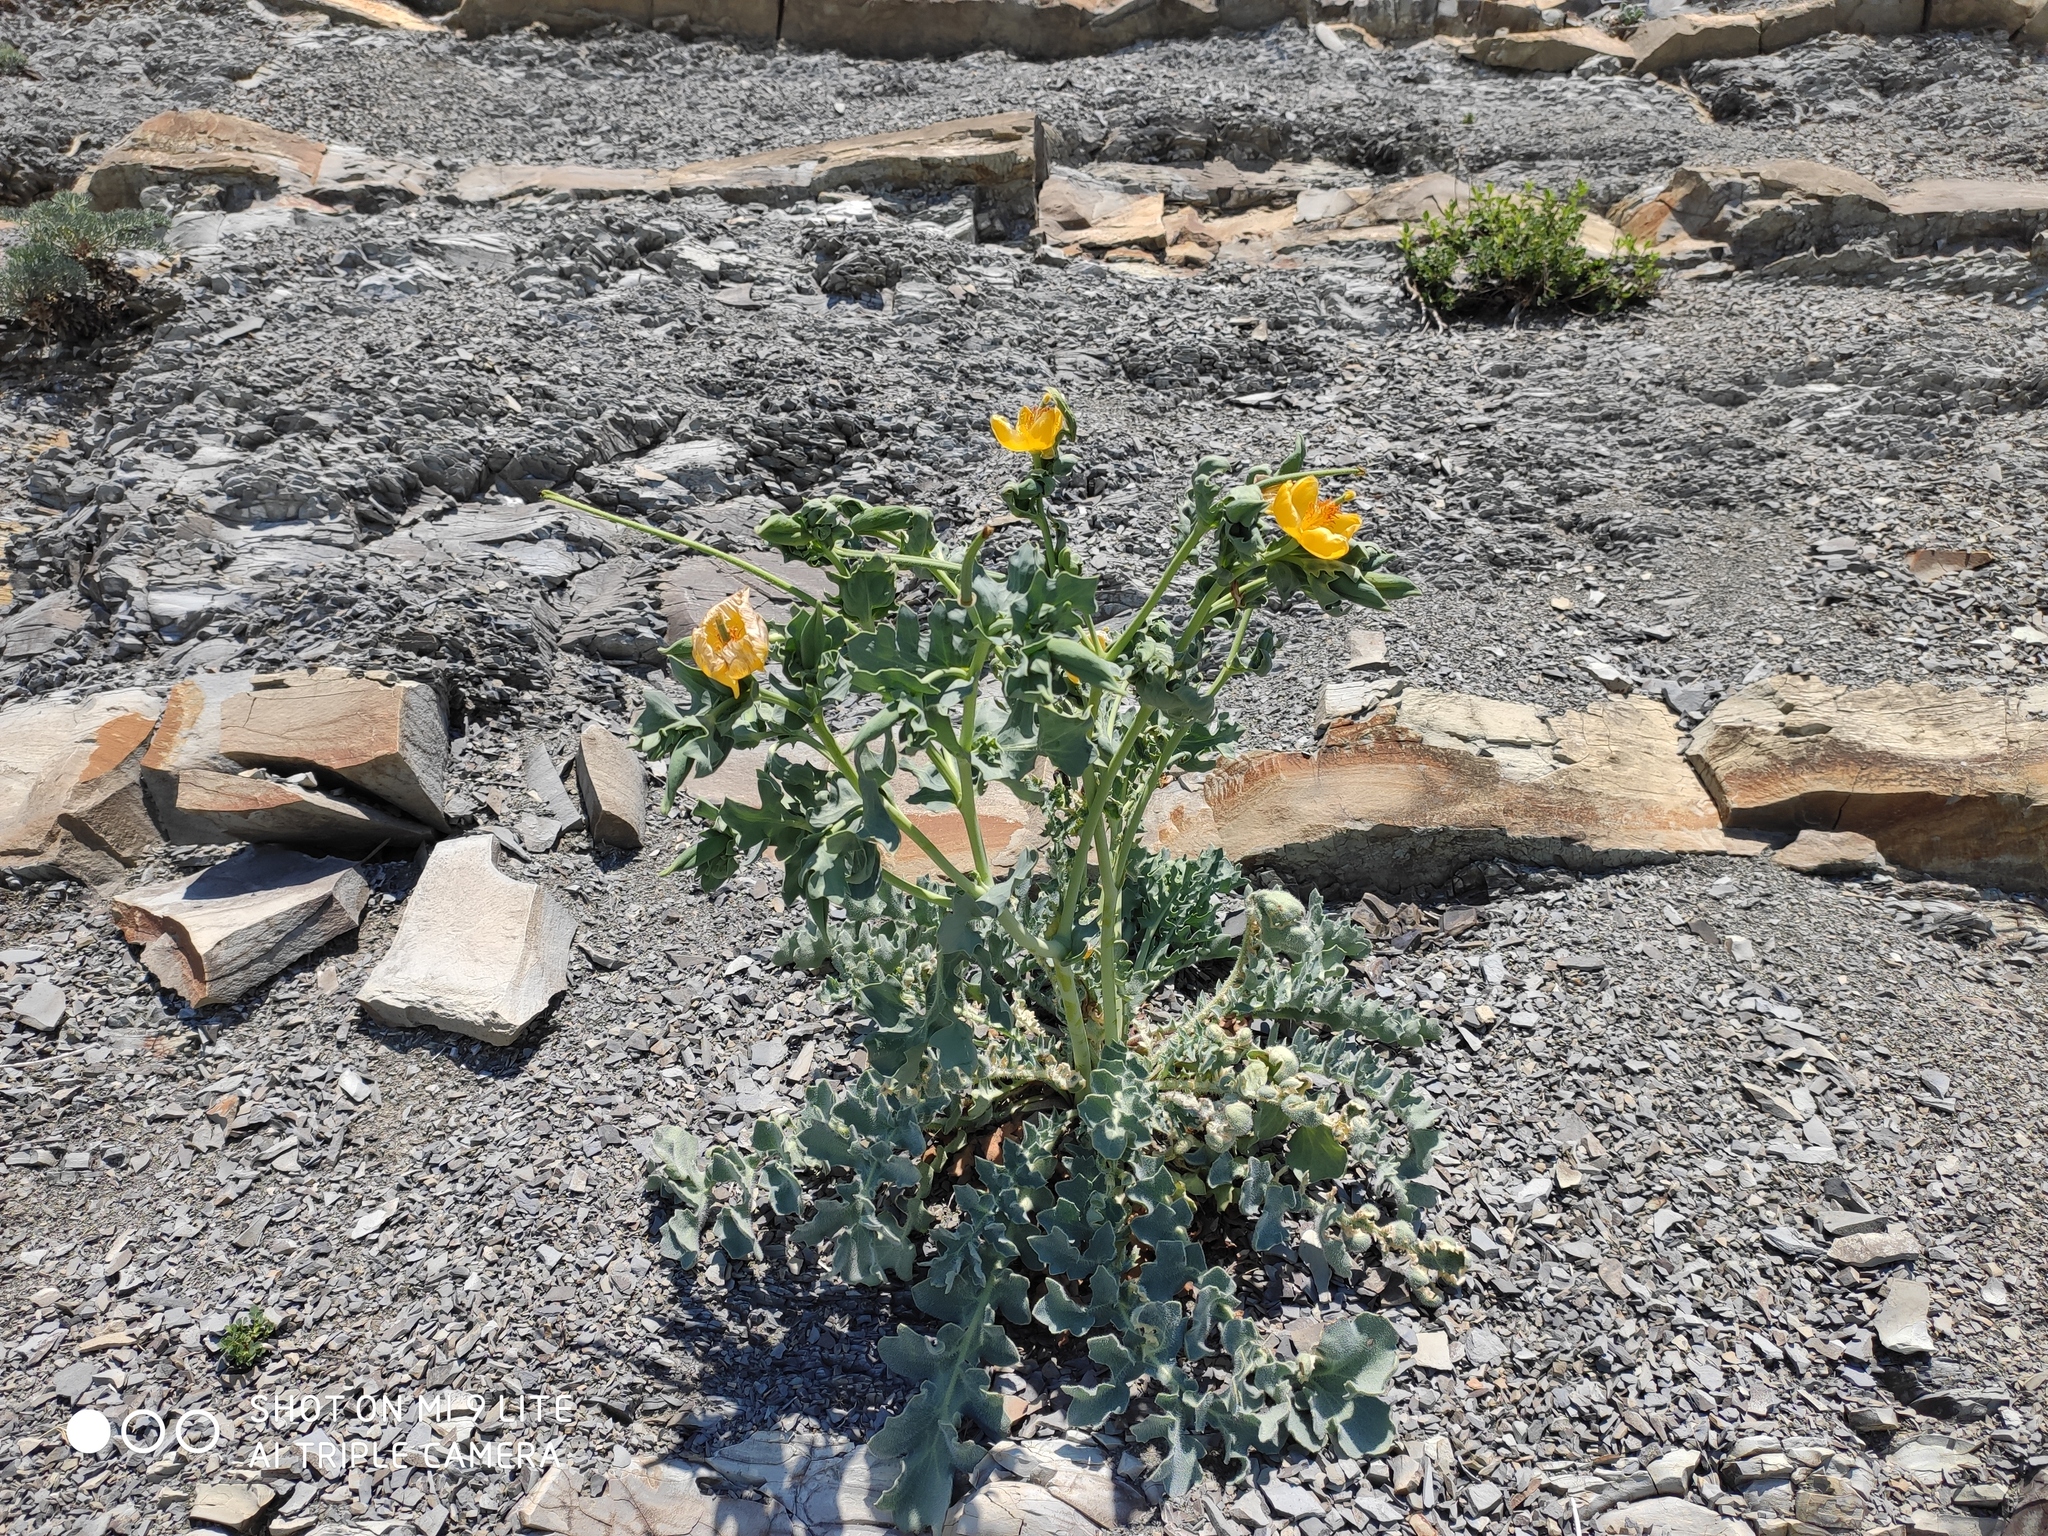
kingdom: Plantae
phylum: Tracheophyta
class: Magnoliopsida
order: Ranunculales
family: Papaveraceae
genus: Glaucium
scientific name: Glaucium flavum
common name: Yellow horned-poppy
